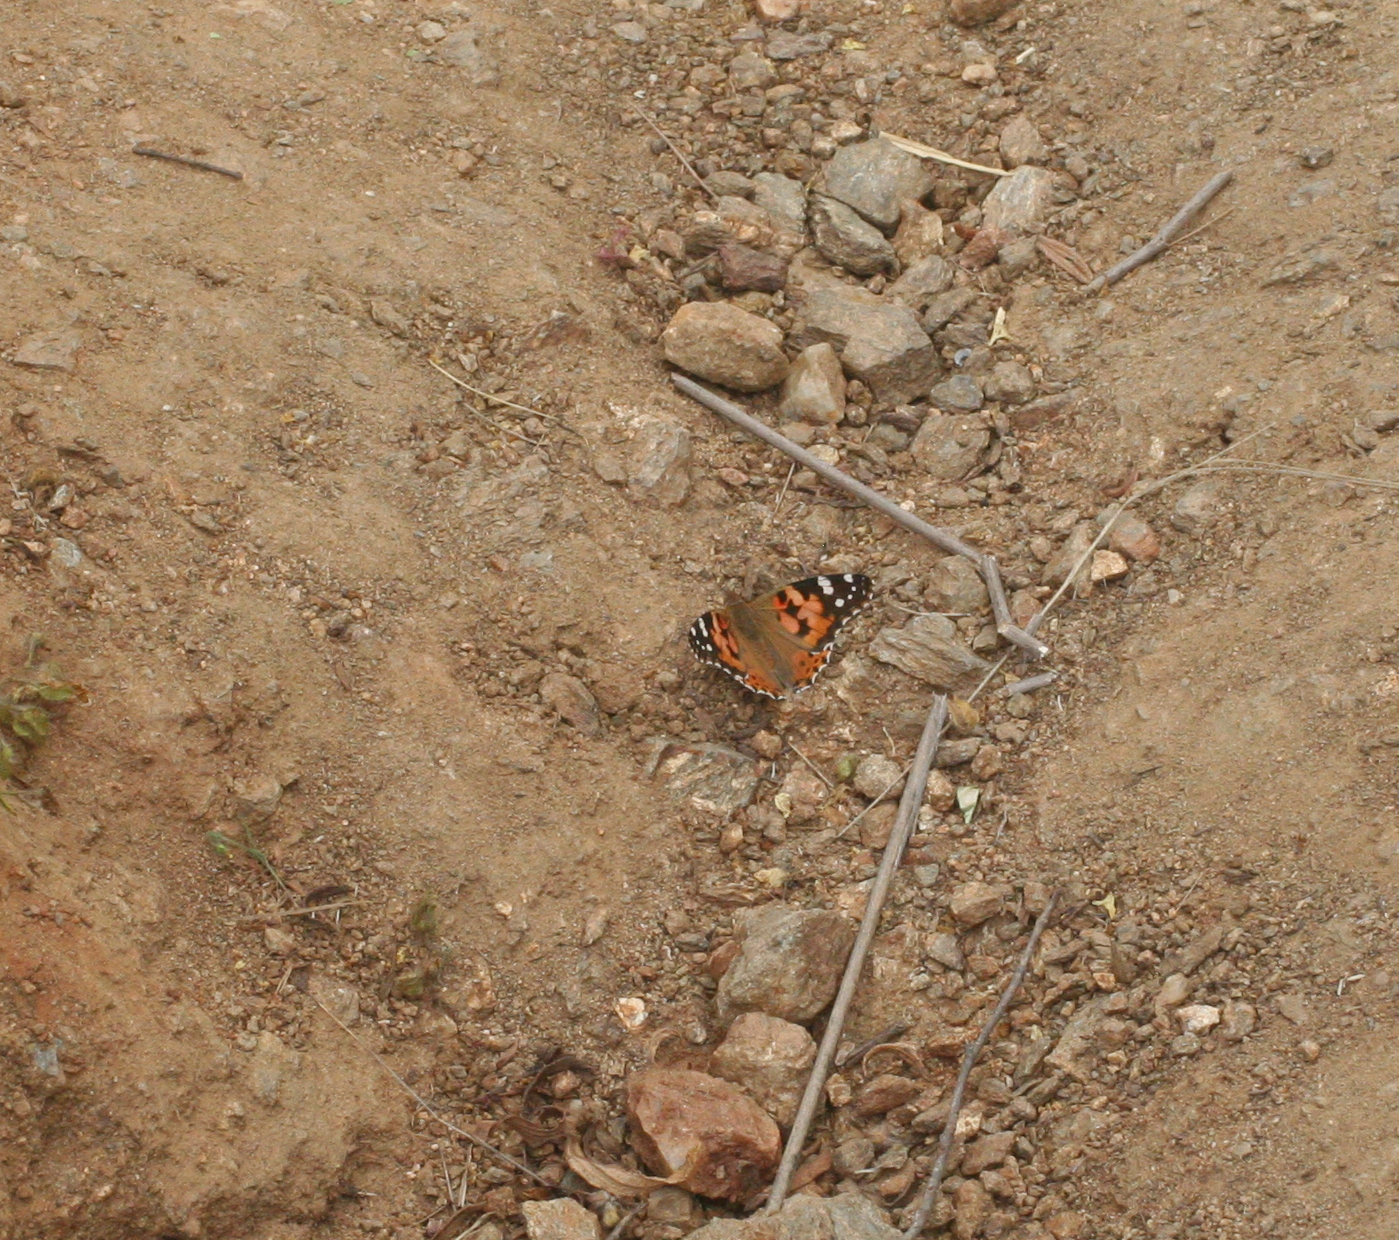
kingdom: Animalia
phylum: Arthropoda
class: Insecta
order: Lepidoptera
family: Nymphalidae
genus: Vanessa
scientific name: Vanessa cardui
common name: Painted lady
